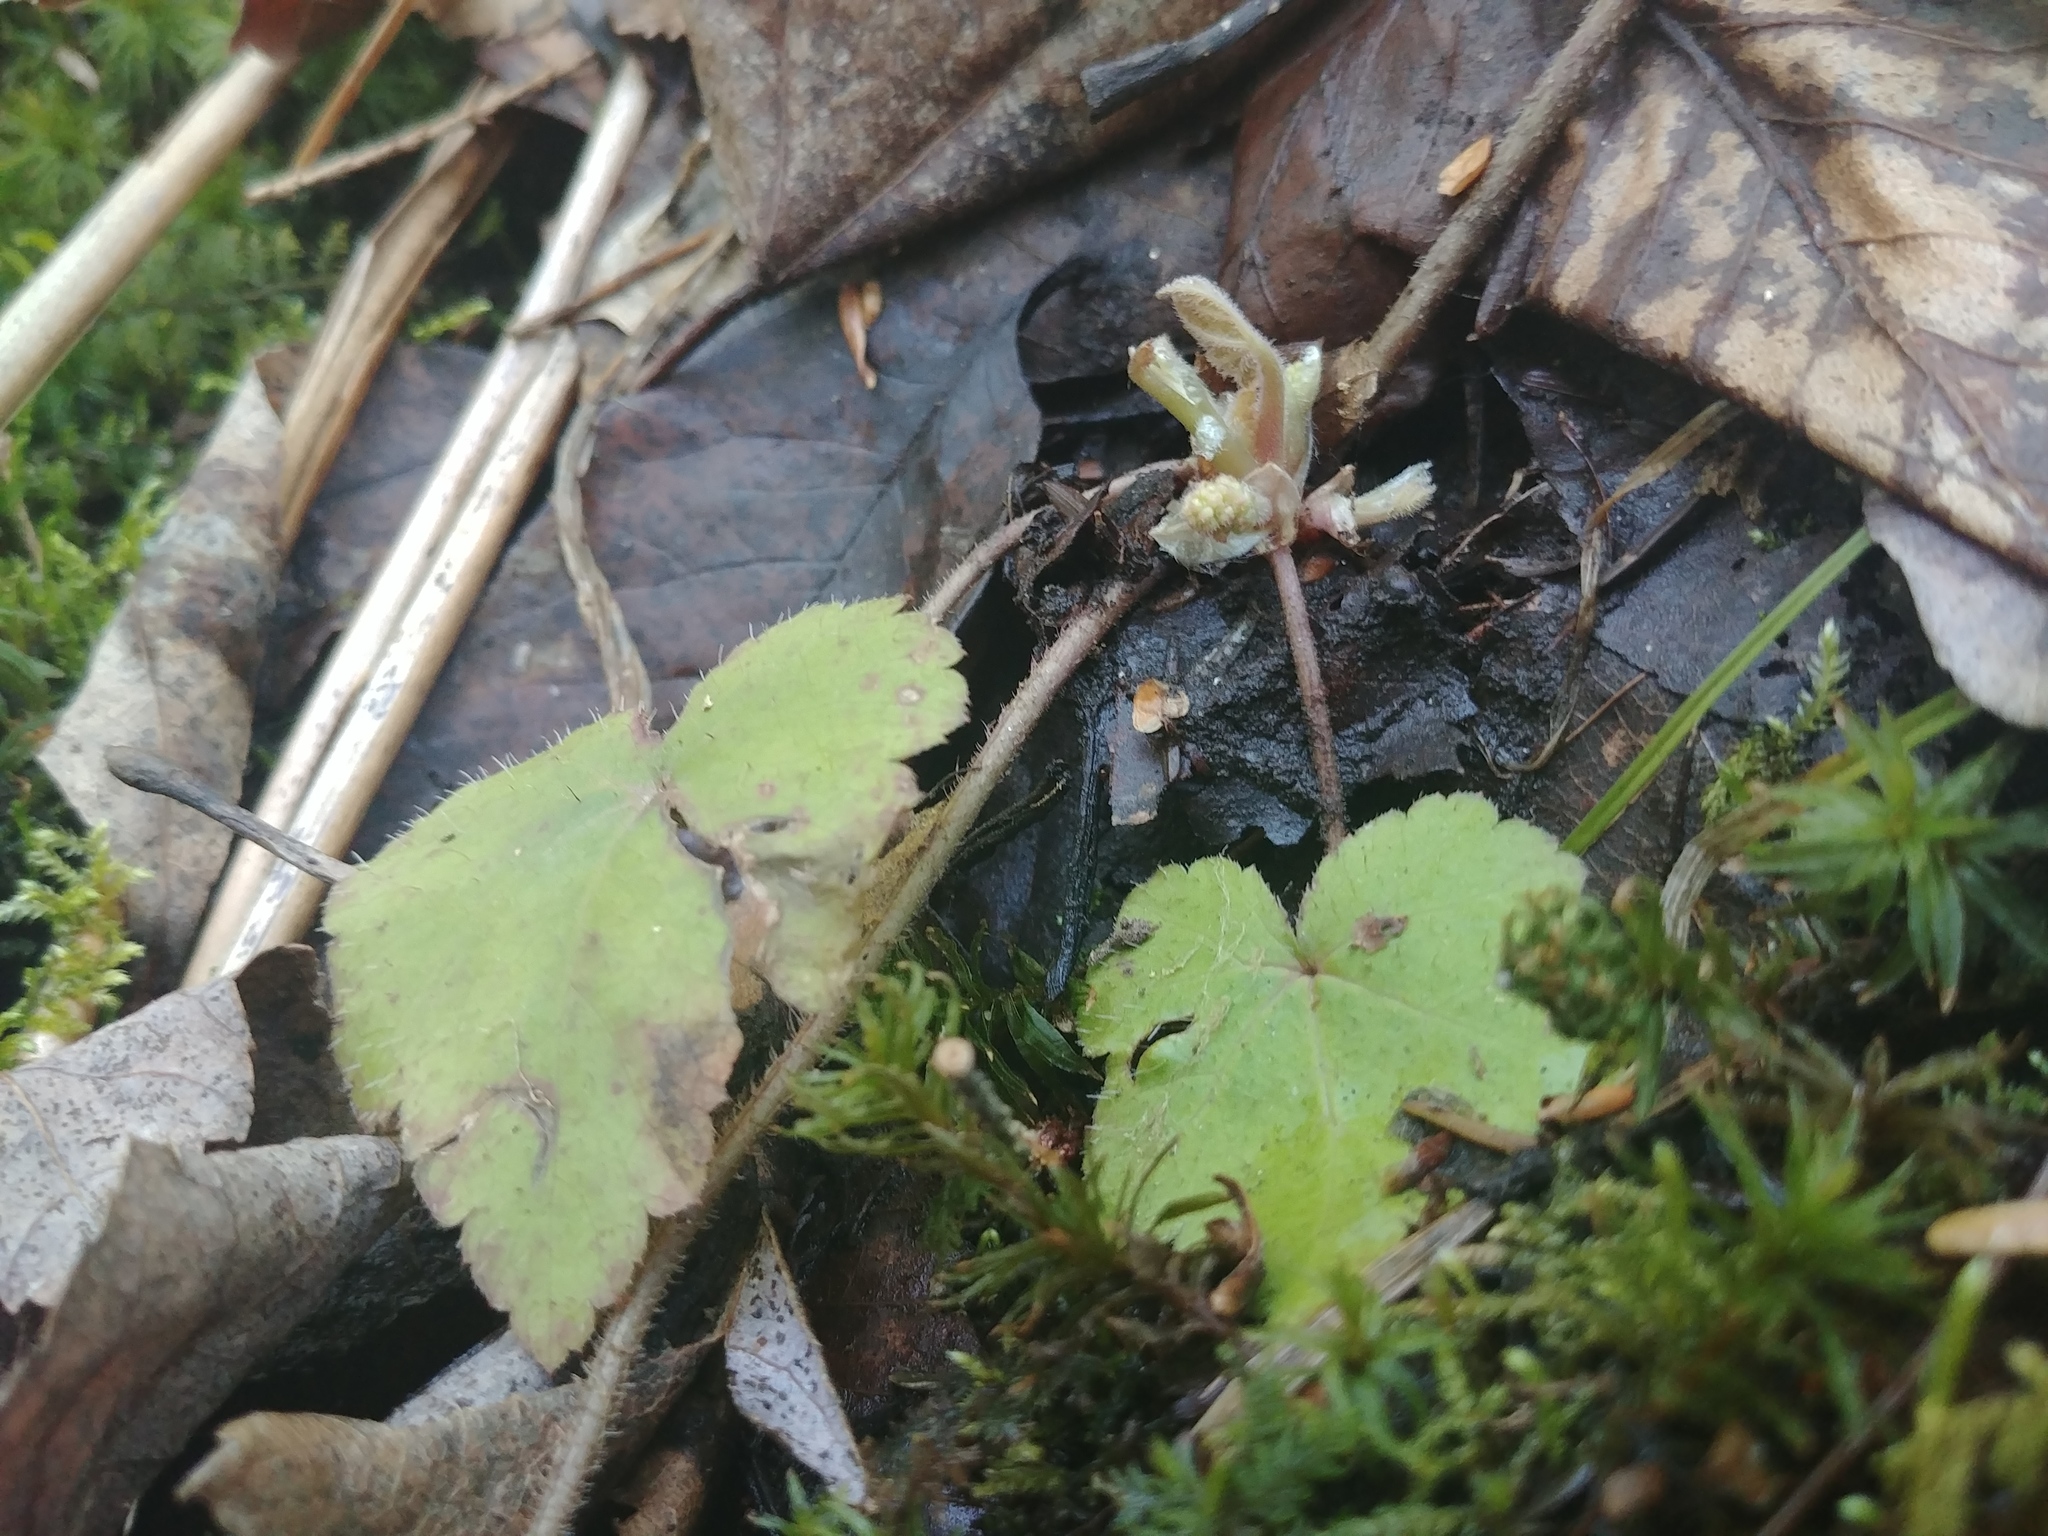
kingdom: Plantae
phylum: Tracheophyta
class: Magnoliopsida
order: Saxifragales
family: Saxifragaceae
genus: Tiarella
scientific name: Tiarella stolonifera
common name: Stoloniferous foamflower
